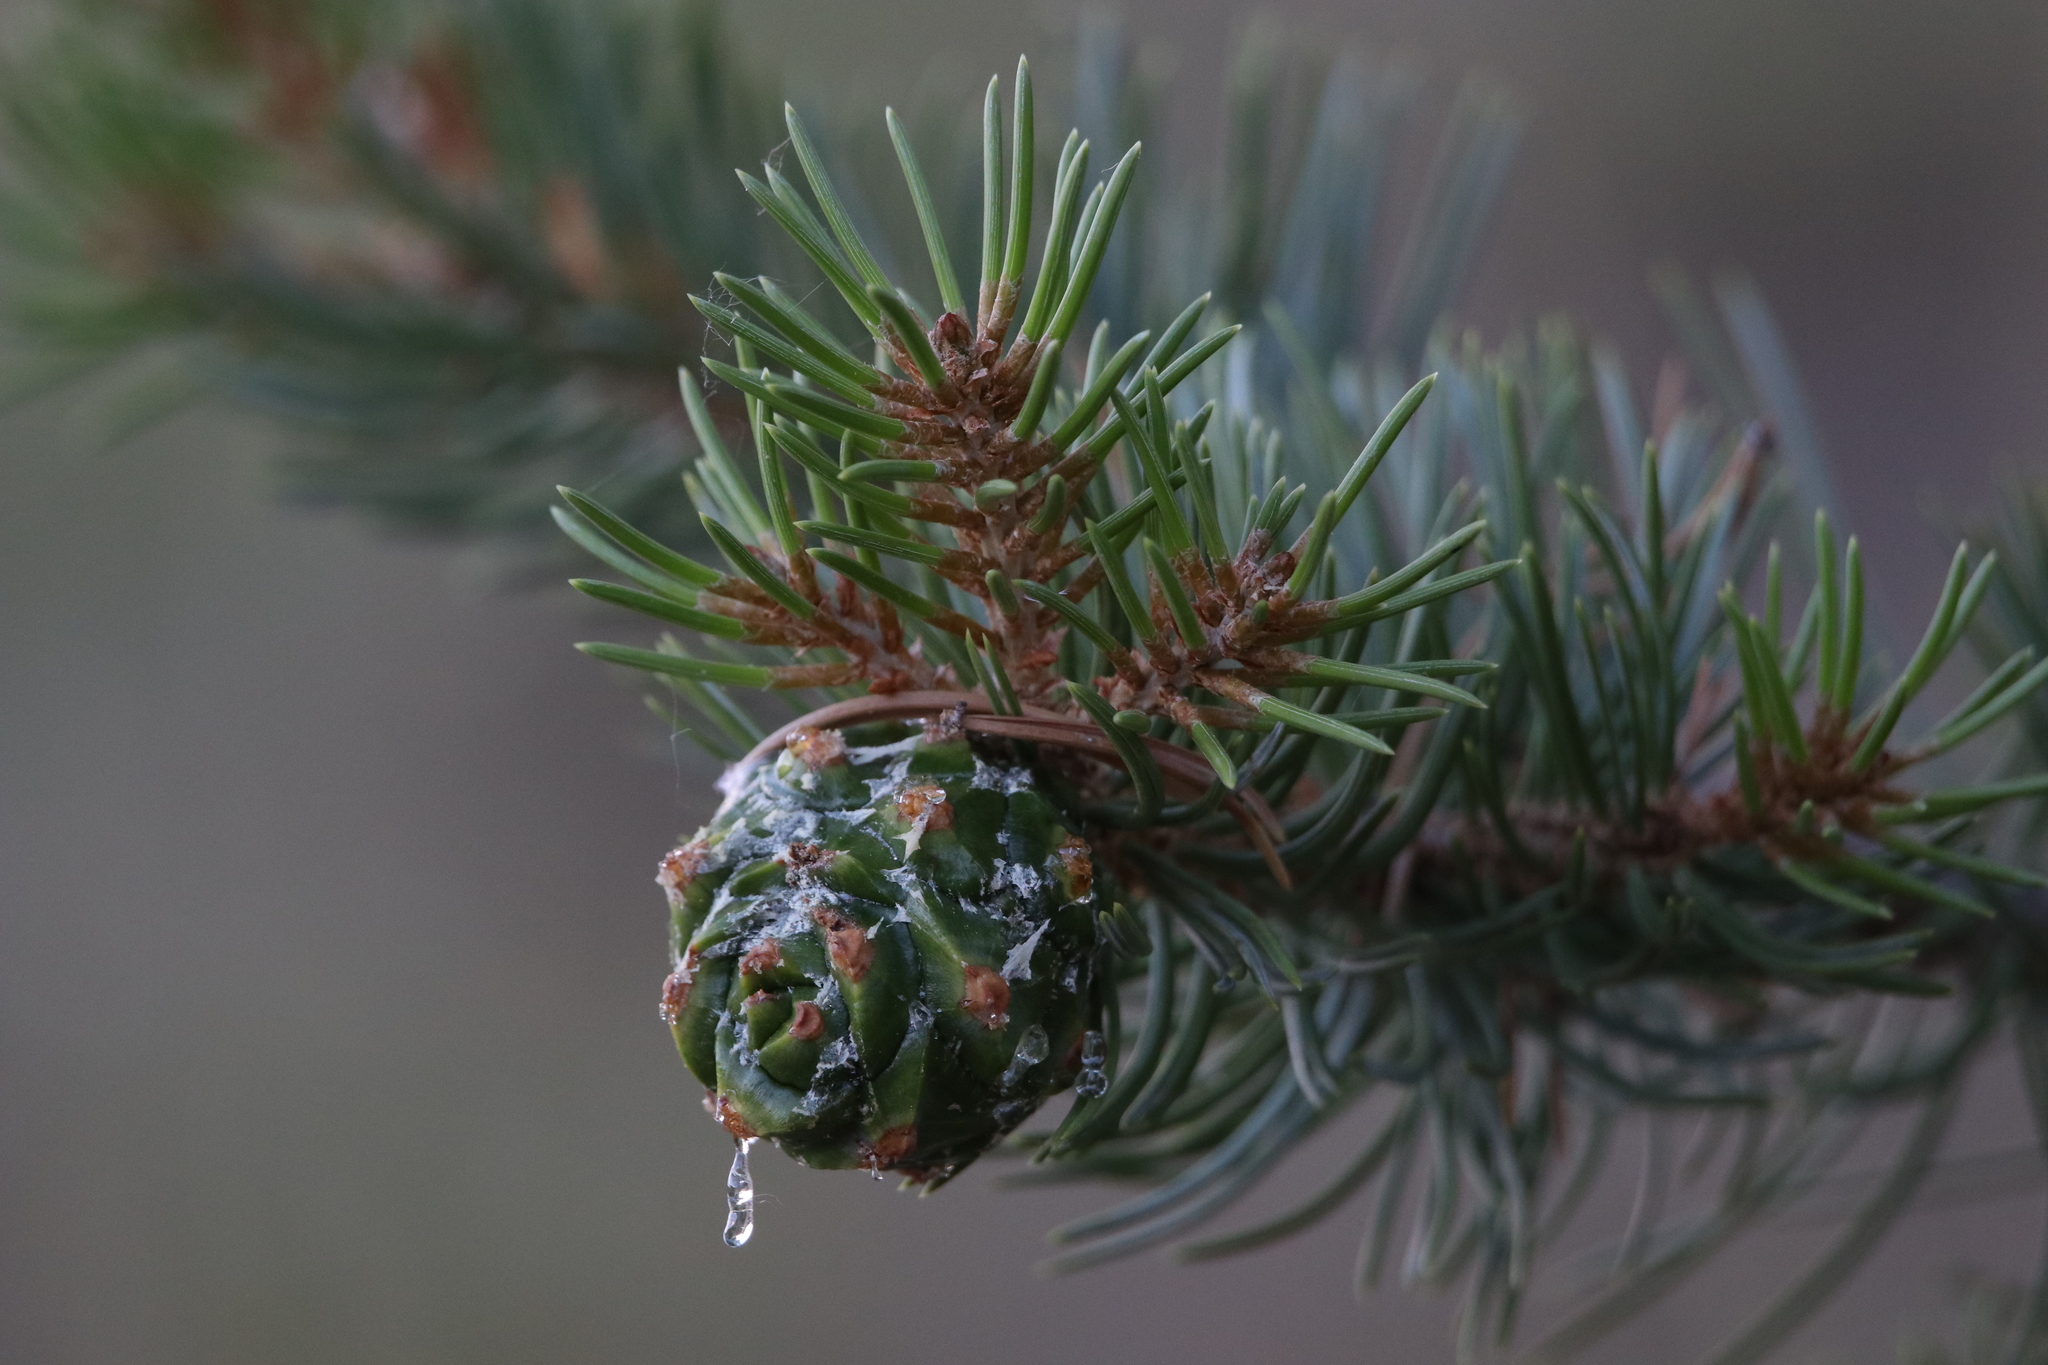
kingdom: Plantae
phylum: Tracheophyta
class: Pinopsida
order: Pinales
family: Pinaceae
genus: Pinus
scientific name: Pinus edulis
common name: Colorado pinyon
